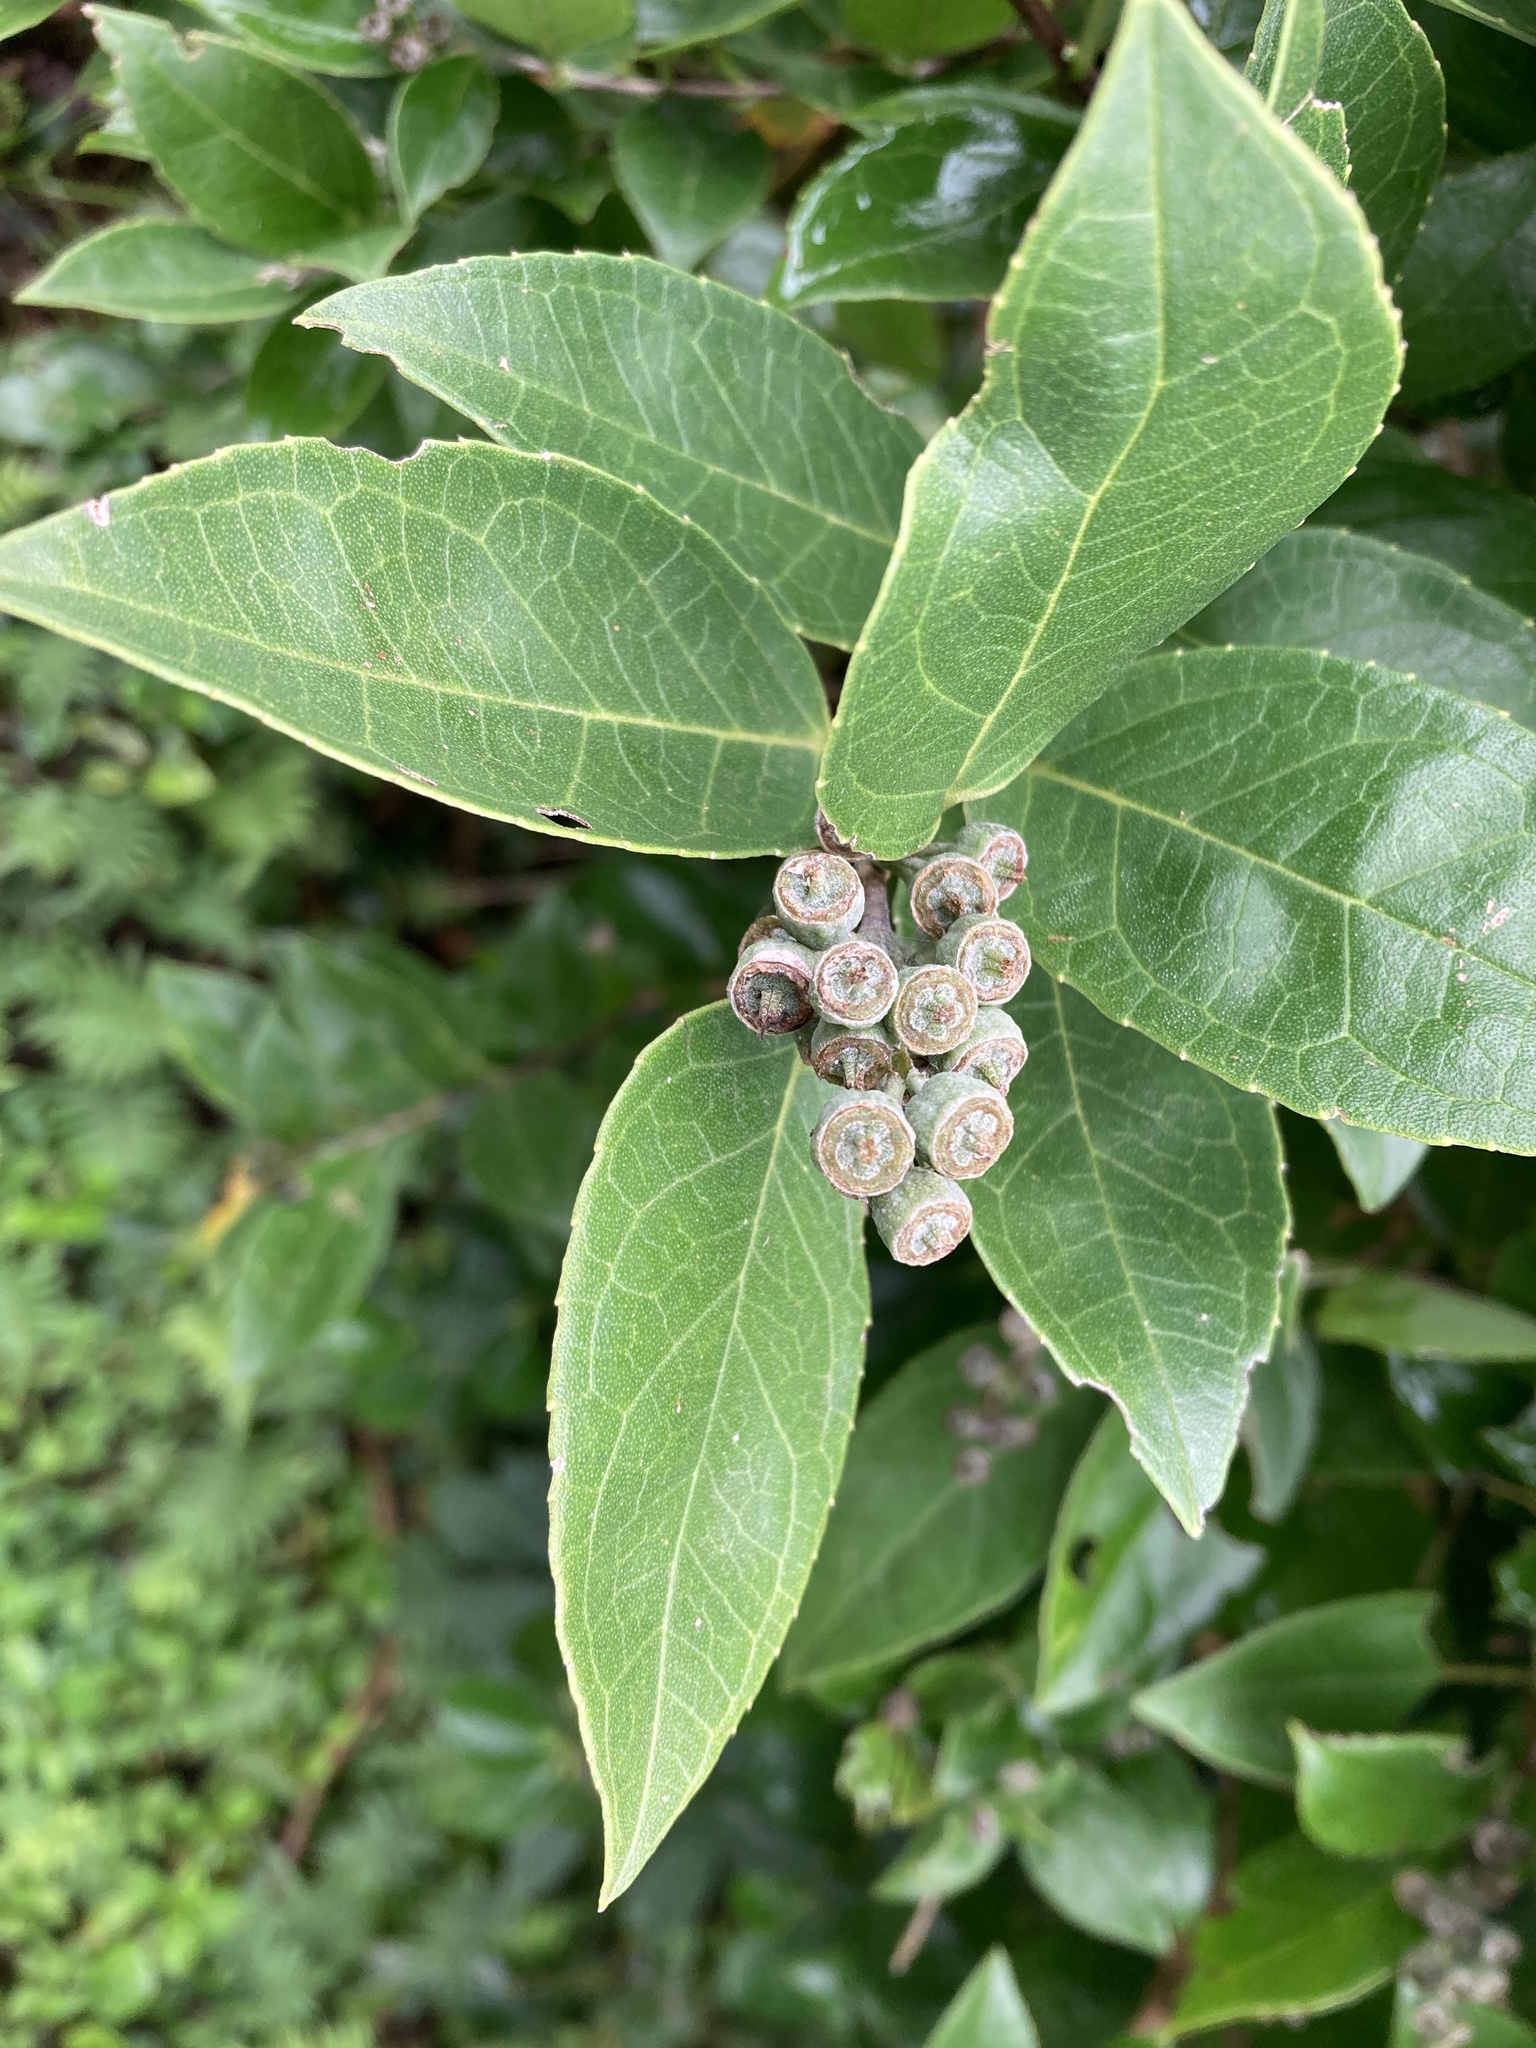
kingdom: Plantae
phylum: Tracheophyta
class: Magnoliopsida
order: Cornales
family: Hydrangeaceae
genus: Deutzia
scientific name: Deutzia pulchra
